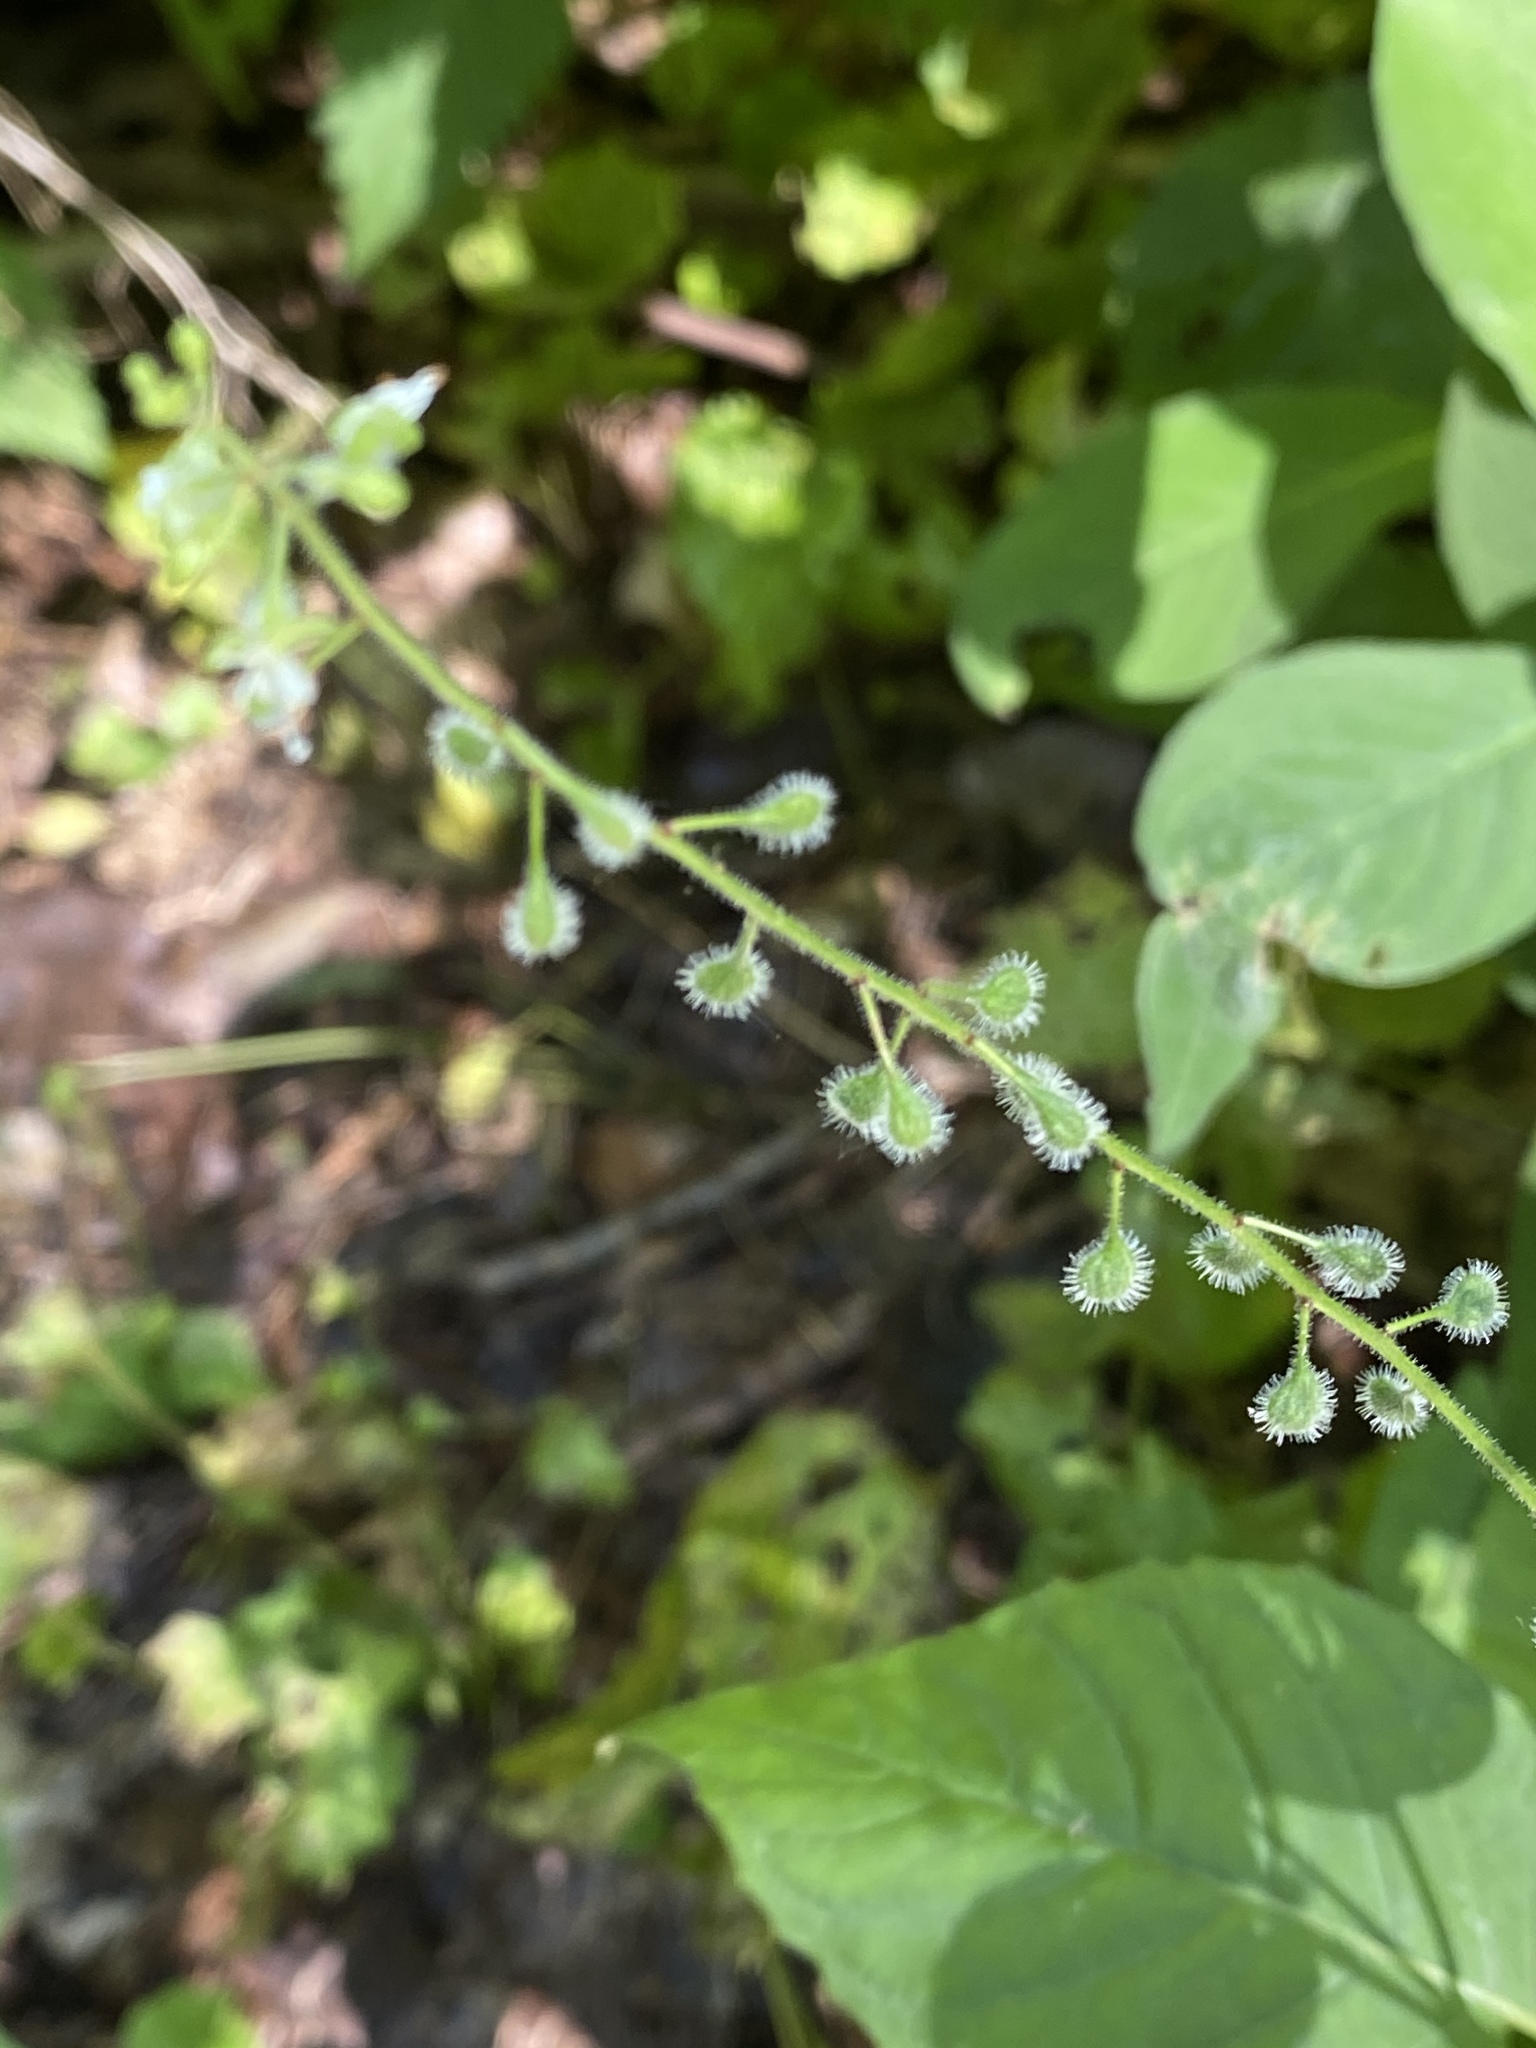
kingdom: Plantae
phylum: Tracheophyta
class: Magnoliopsida
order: Myrtales
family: Onagraceae
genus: Circaea
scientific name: Circaea canadensis
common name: Broad-leaved enchanter's nightshade
